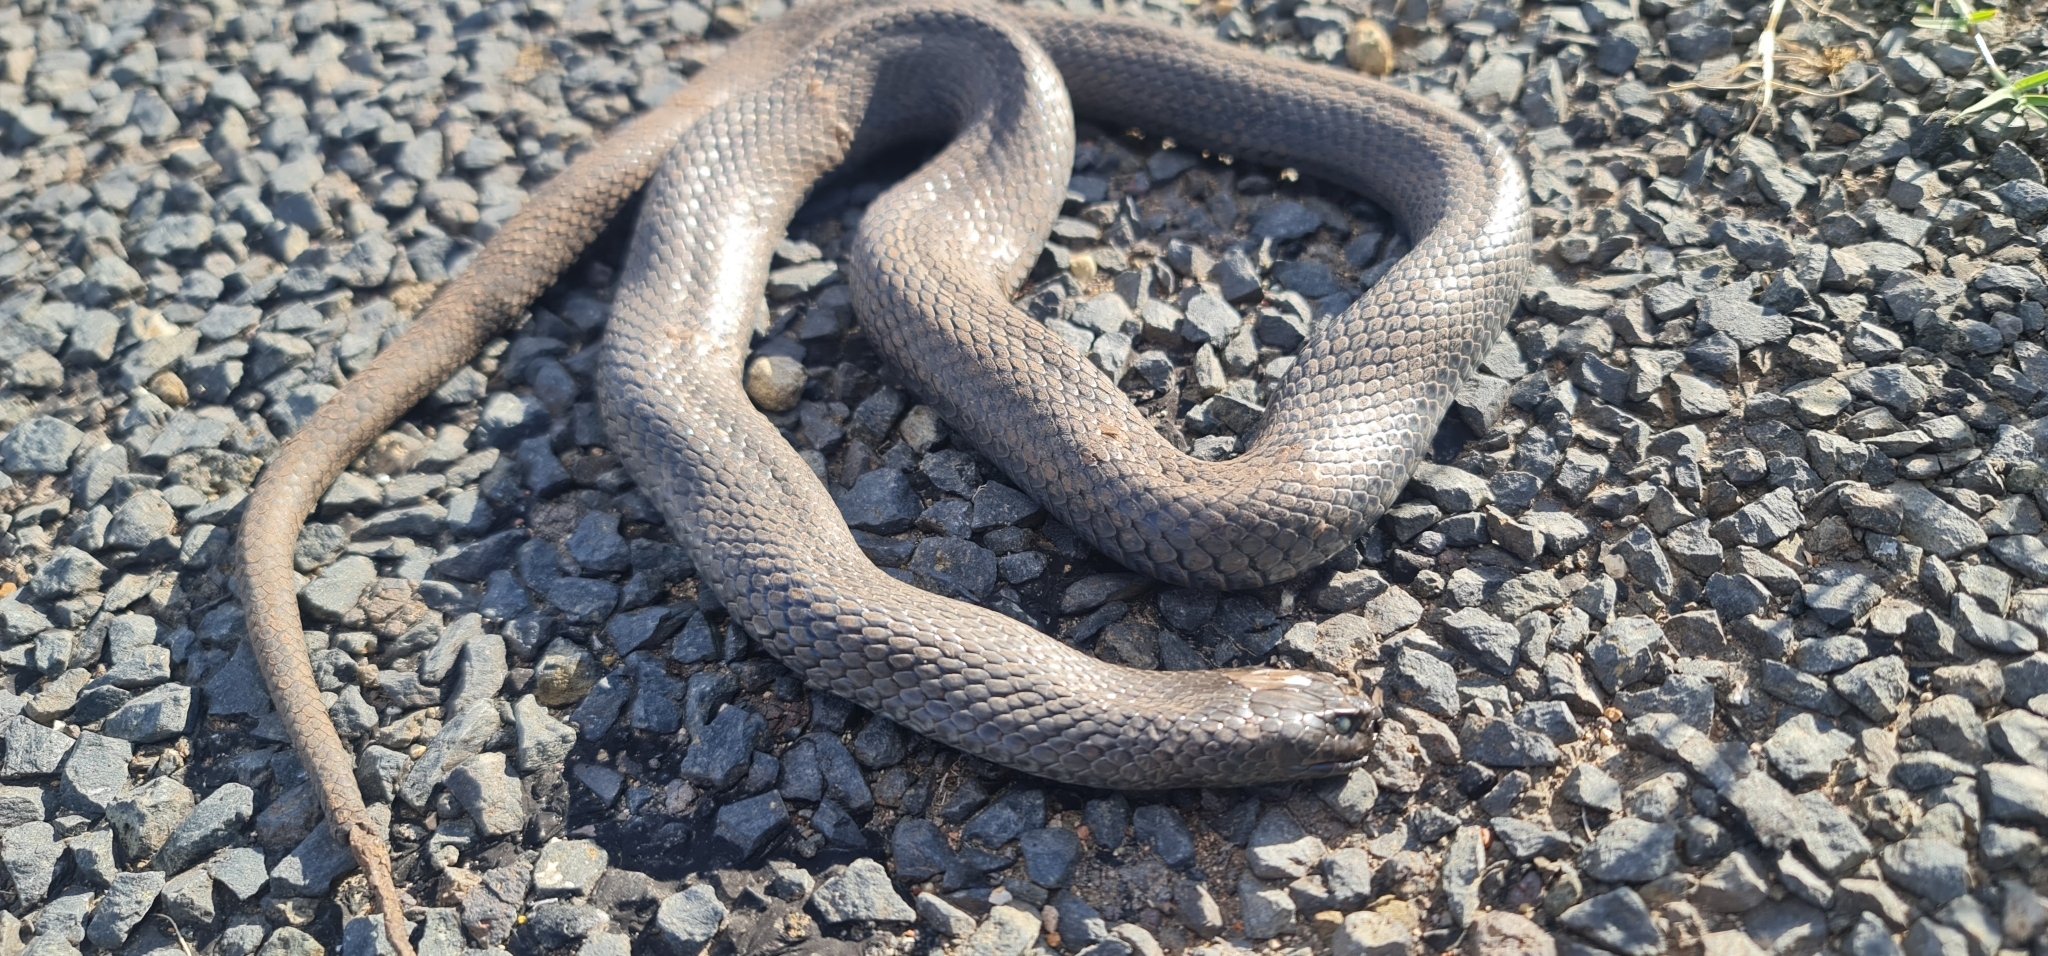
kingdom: Animalia
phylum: Chordata
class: Squamata
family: Elapidae
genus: Pseudechis
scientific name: Pseudechis guttatus
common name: Blue-bellied black snake
